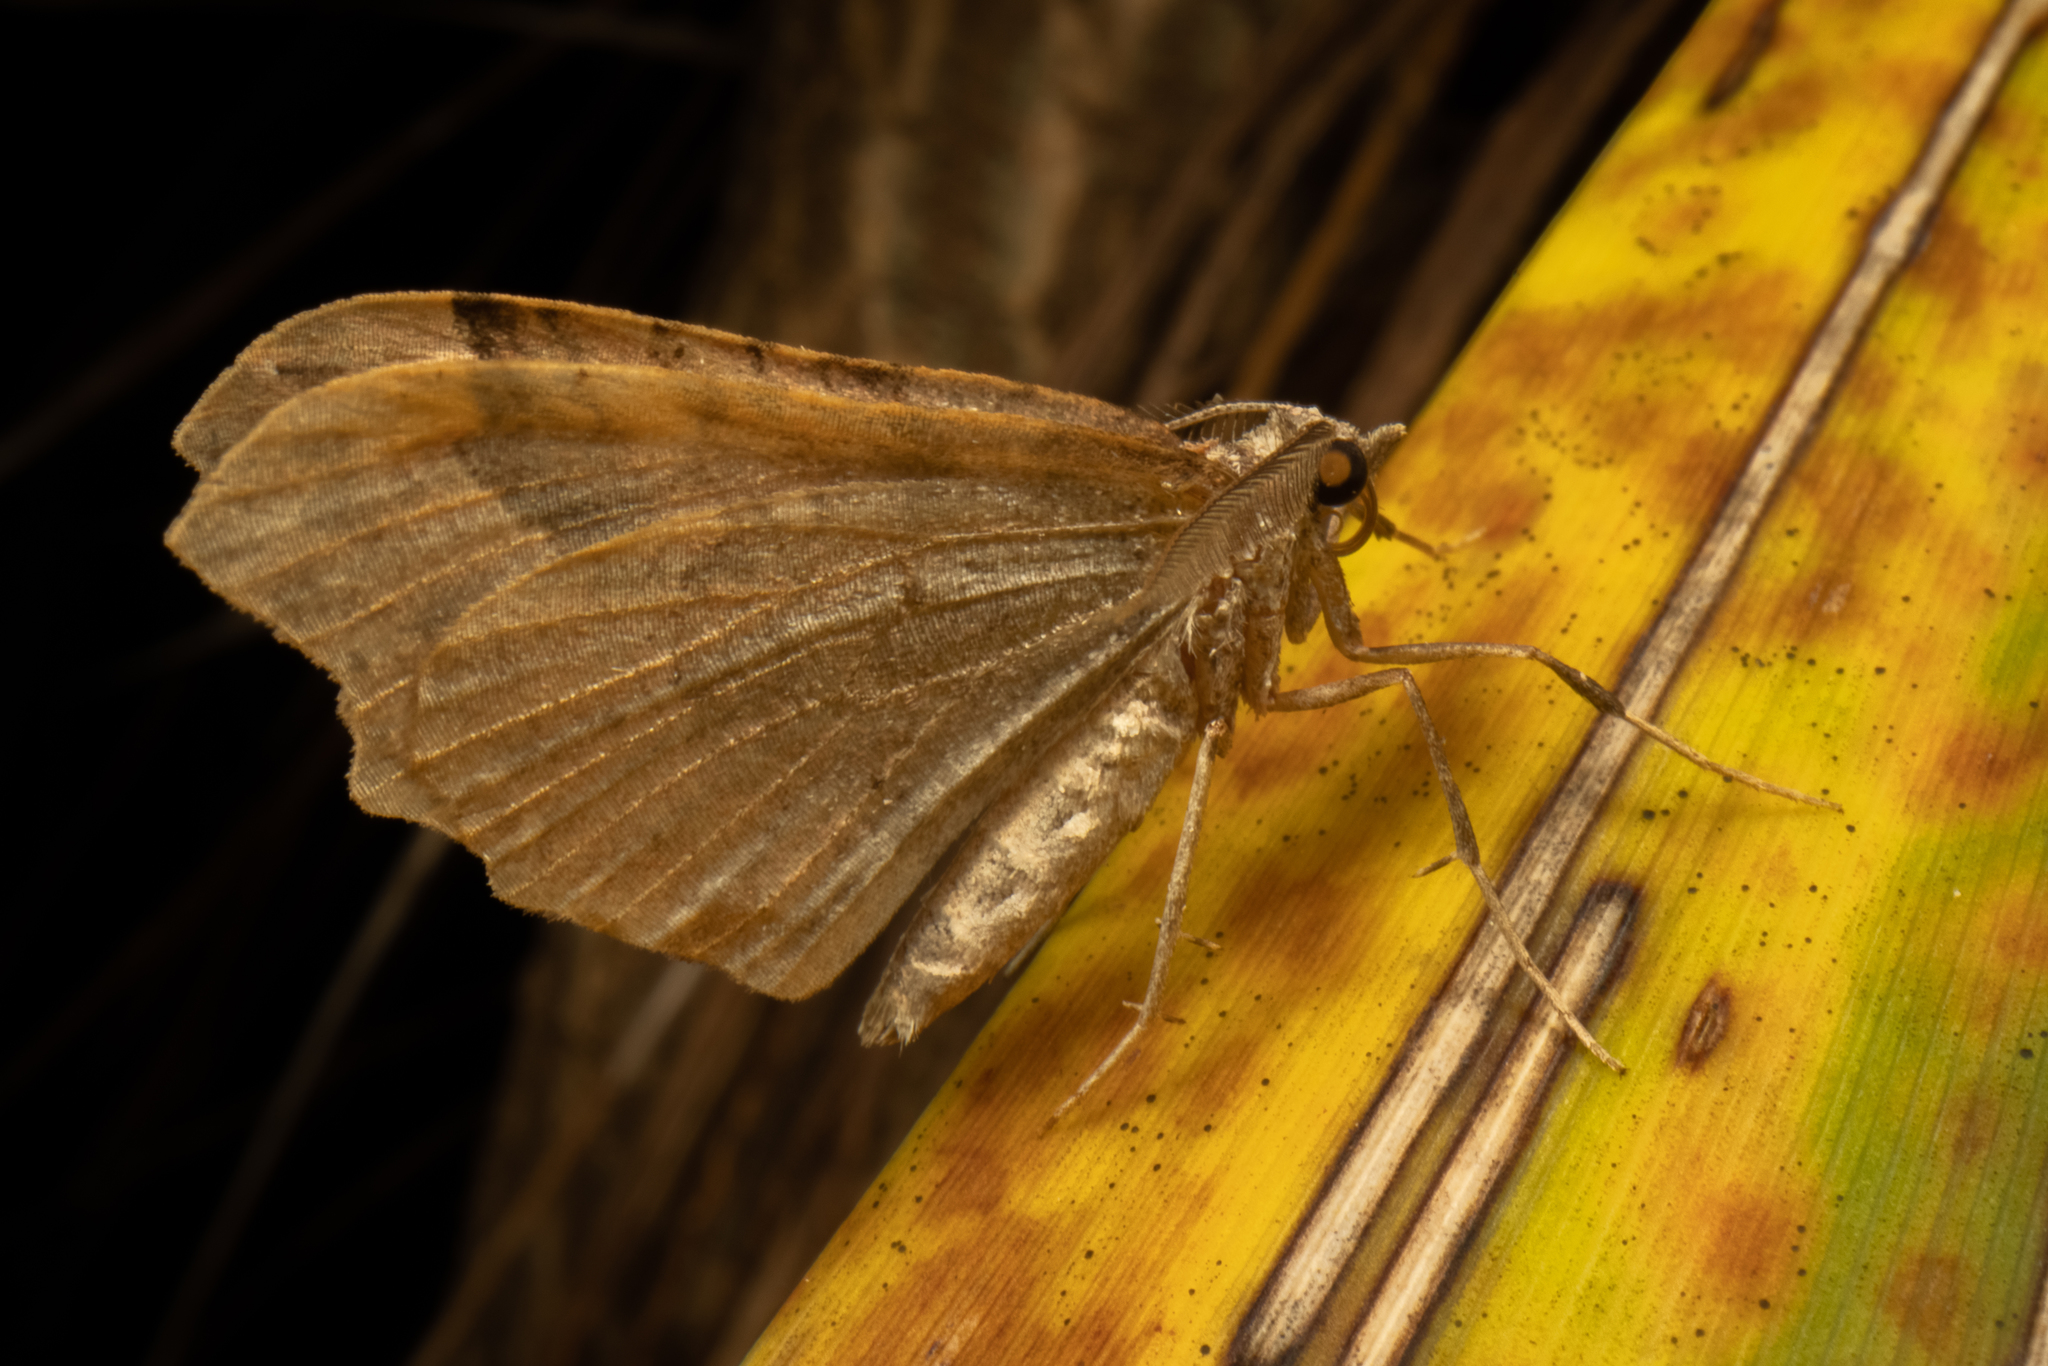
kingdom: Animalia
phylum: Arthropoda
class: Insecta
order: Lepidoptera
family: Geometridae
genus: Austrocidaria
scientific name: Austrocidaria parora
